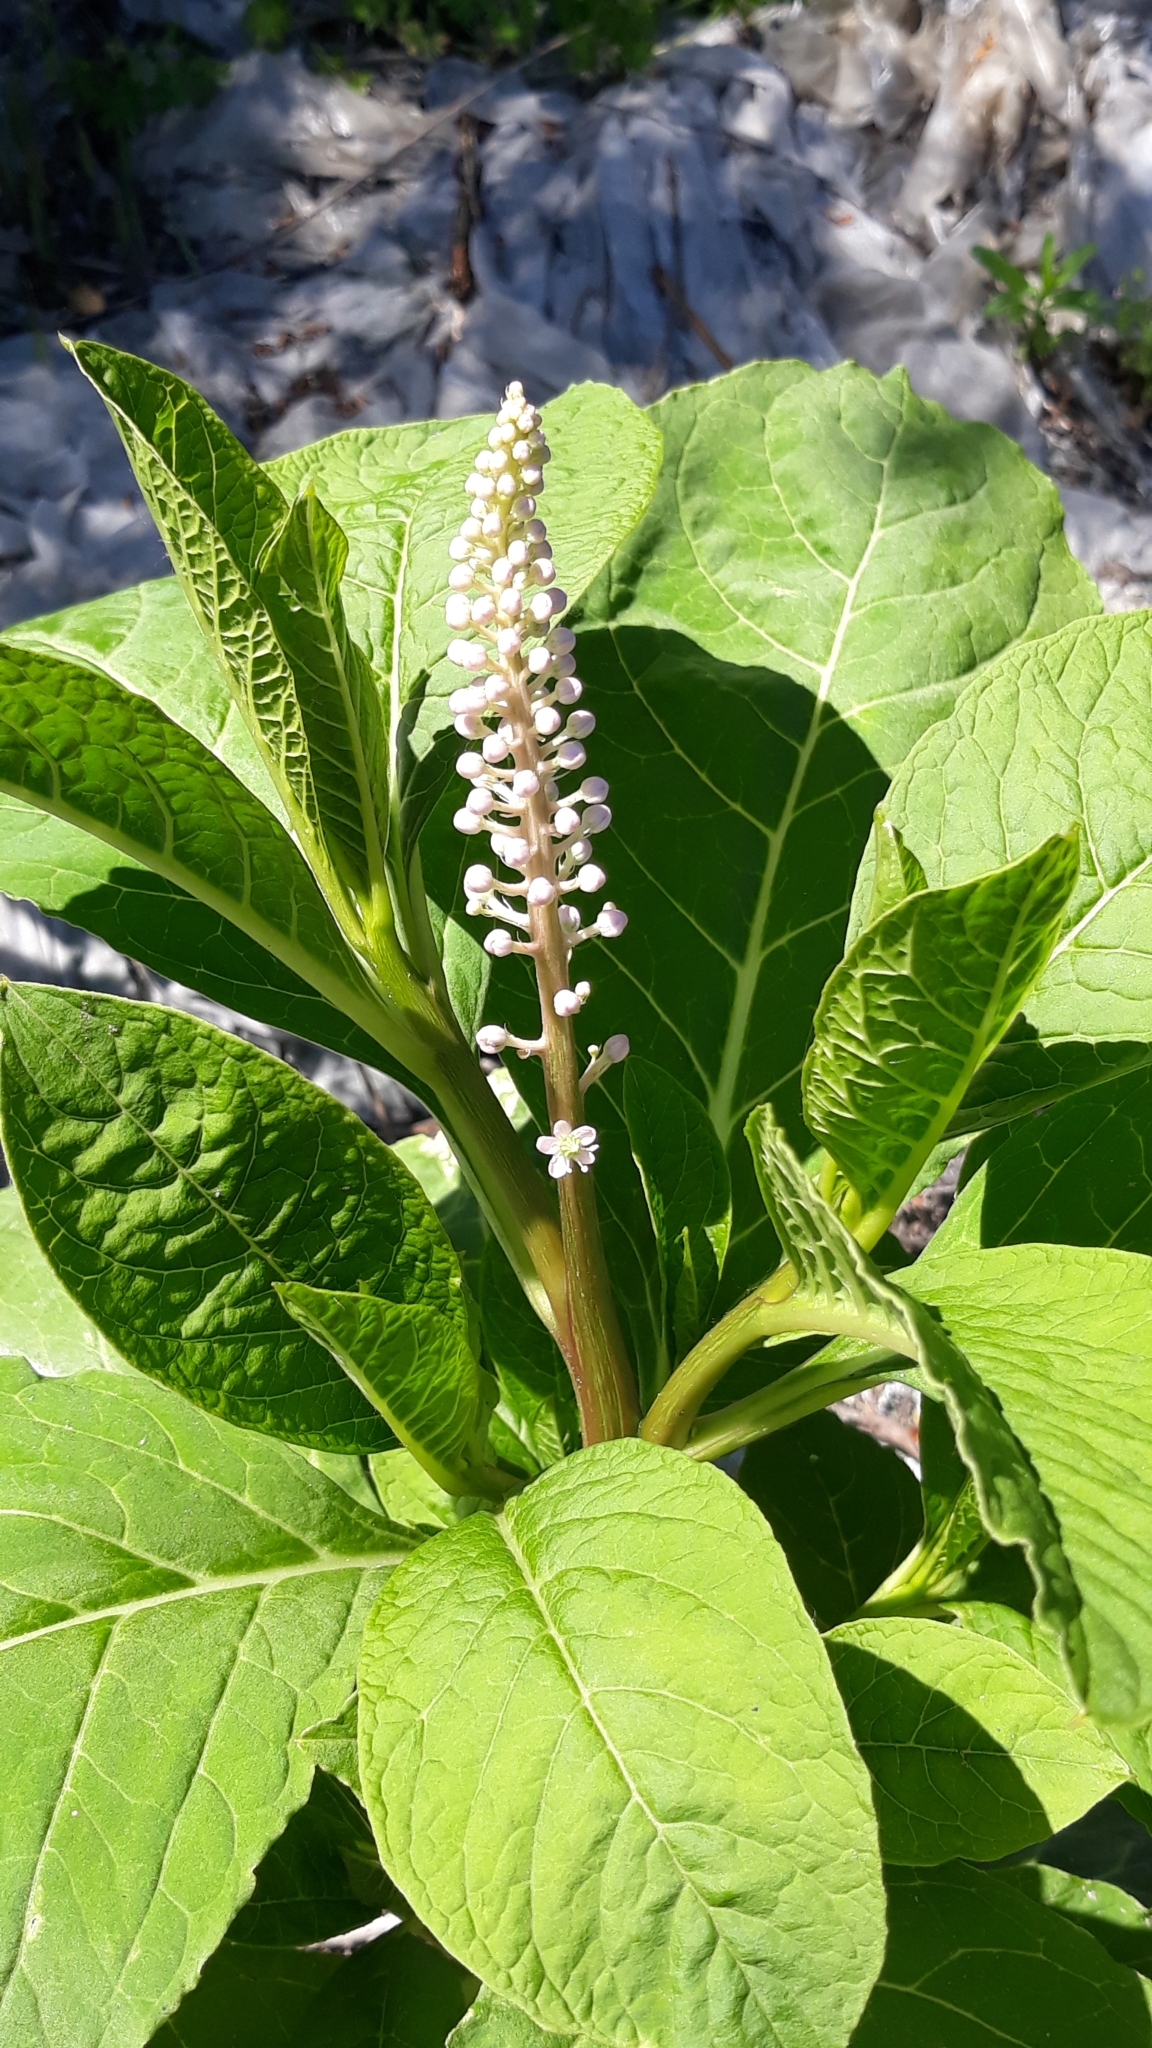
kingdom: Plantae
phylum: Tracheophyta
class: Magnoliopsida
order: Caryophyllales
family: Phytolaccaceae
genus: Phytolacca
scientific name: Phytolacca acinosa
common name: Indian pokeweed
